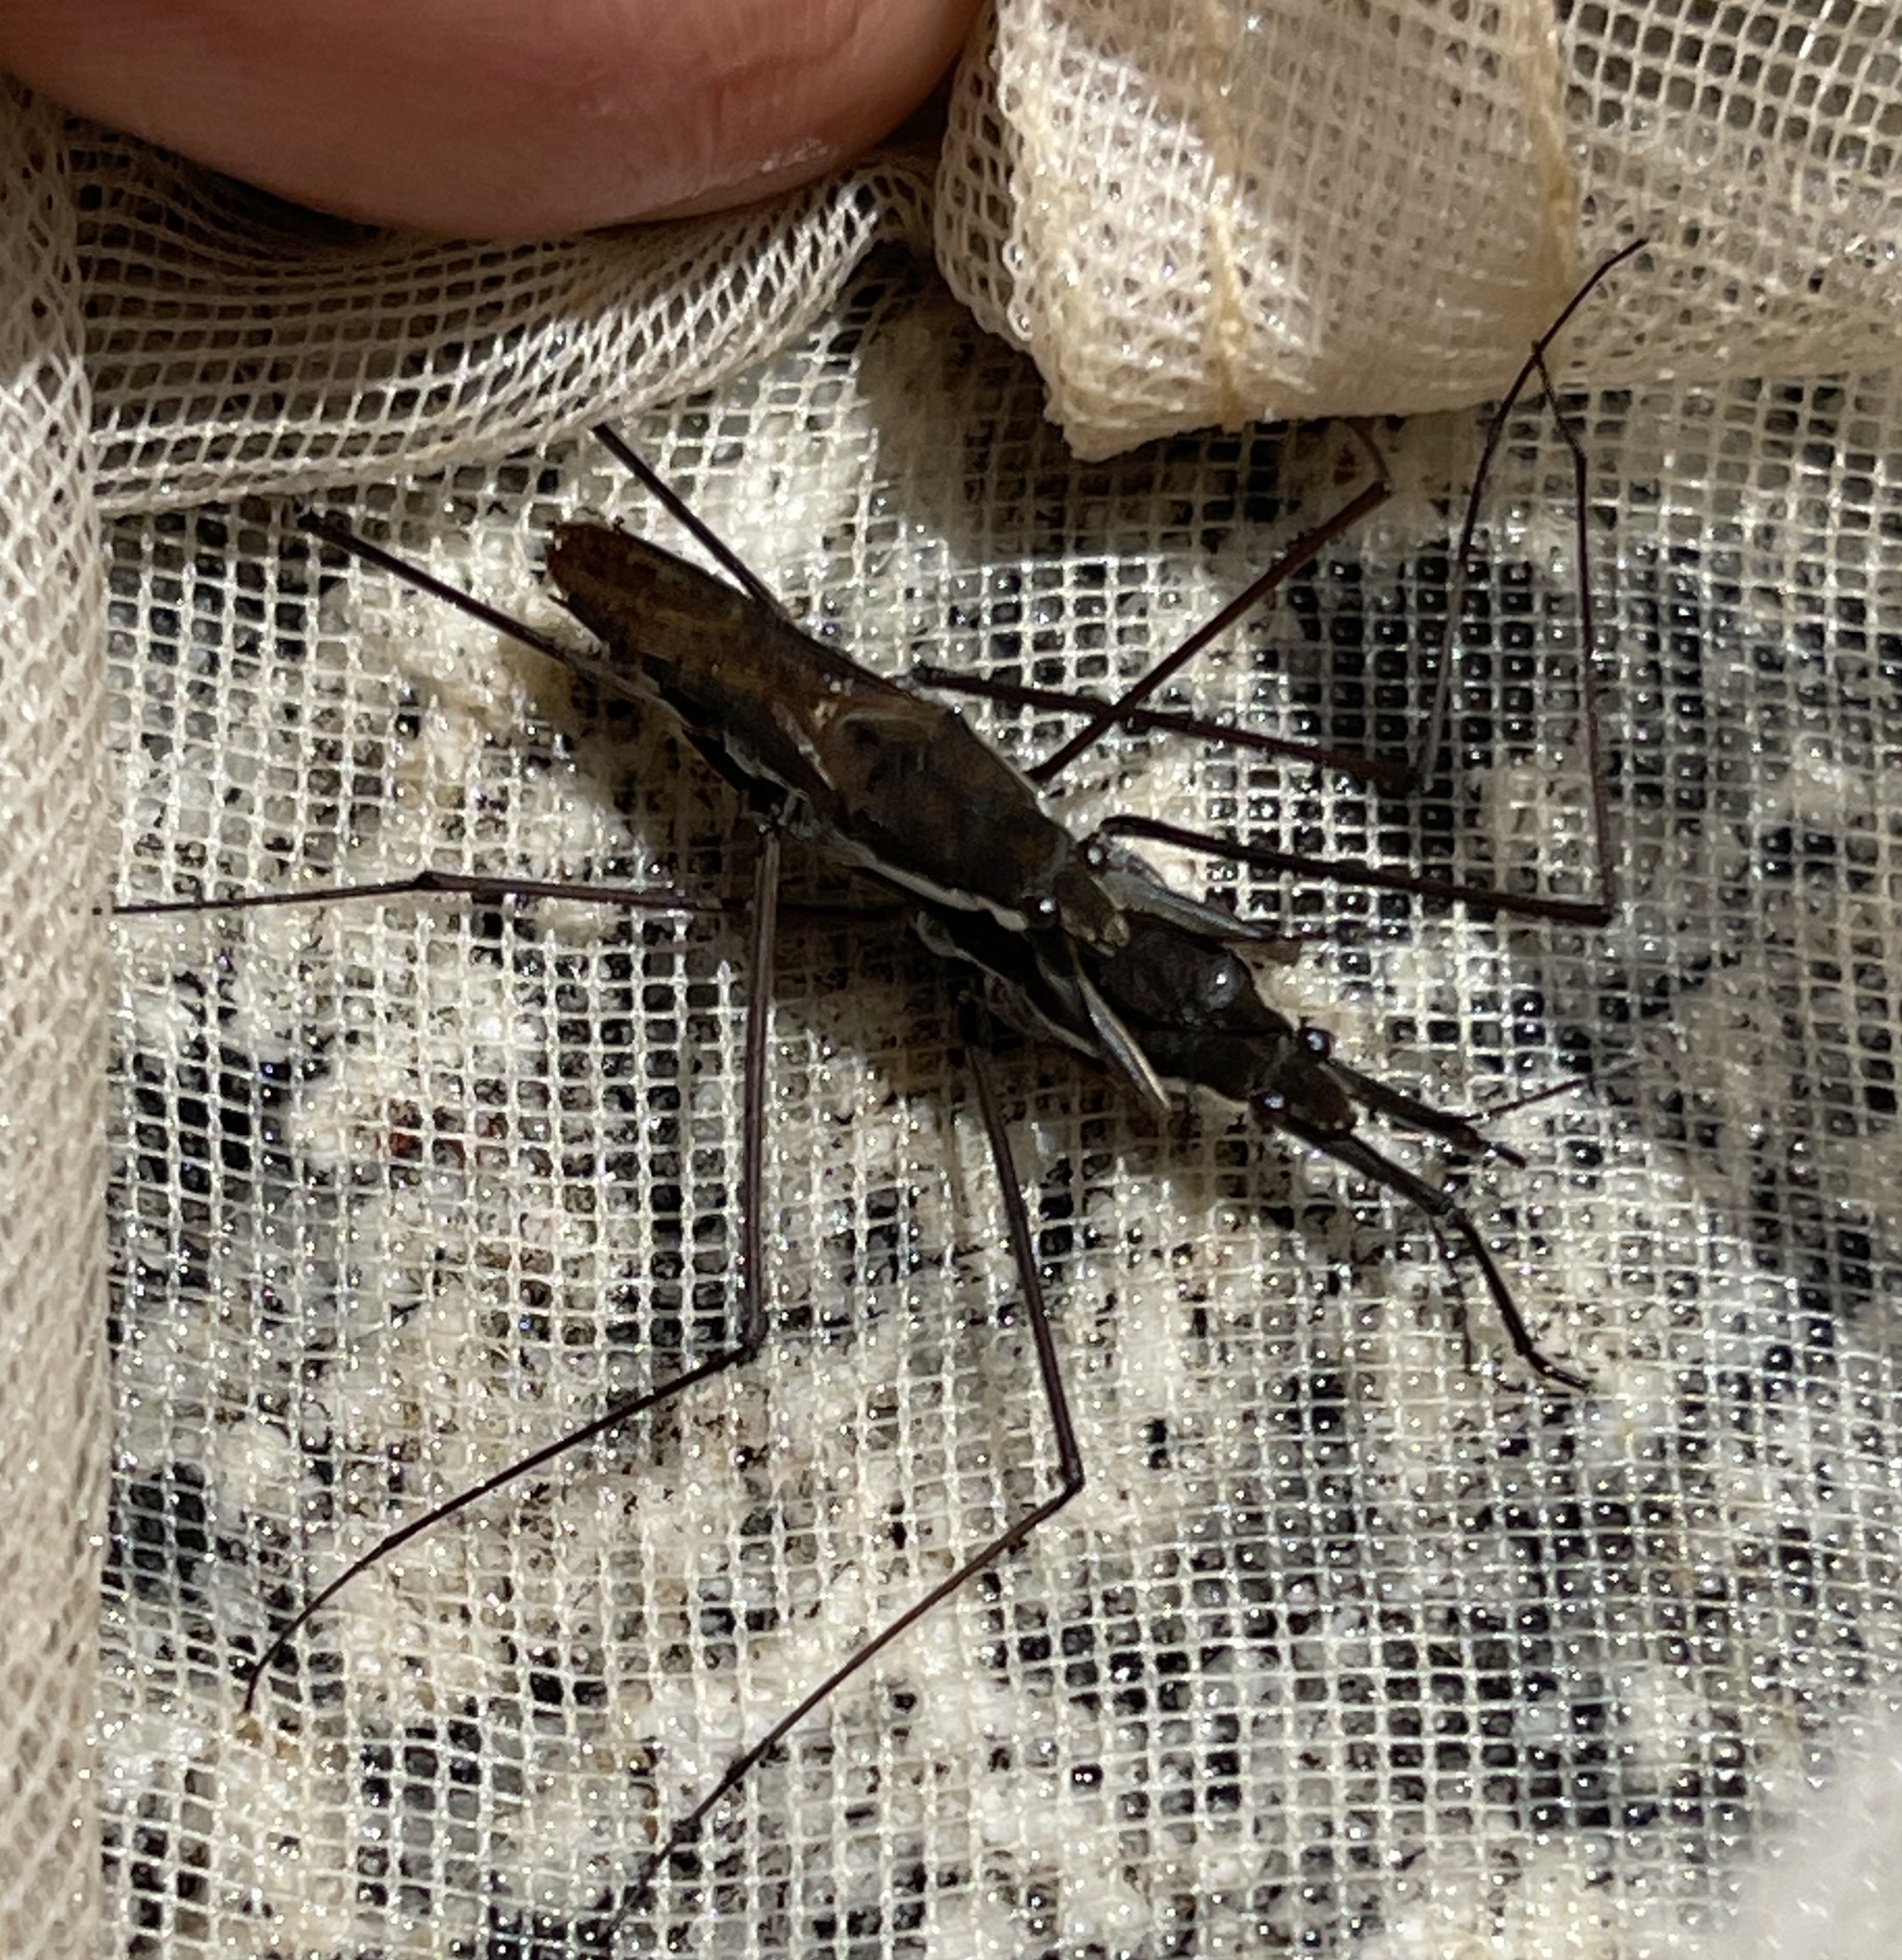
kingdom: Animalia
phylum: Arthropoda
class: Insecta
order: Hemiptera
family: Gerridae
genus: Aquarius
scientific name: Aquarius remigis
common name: Common water strider
